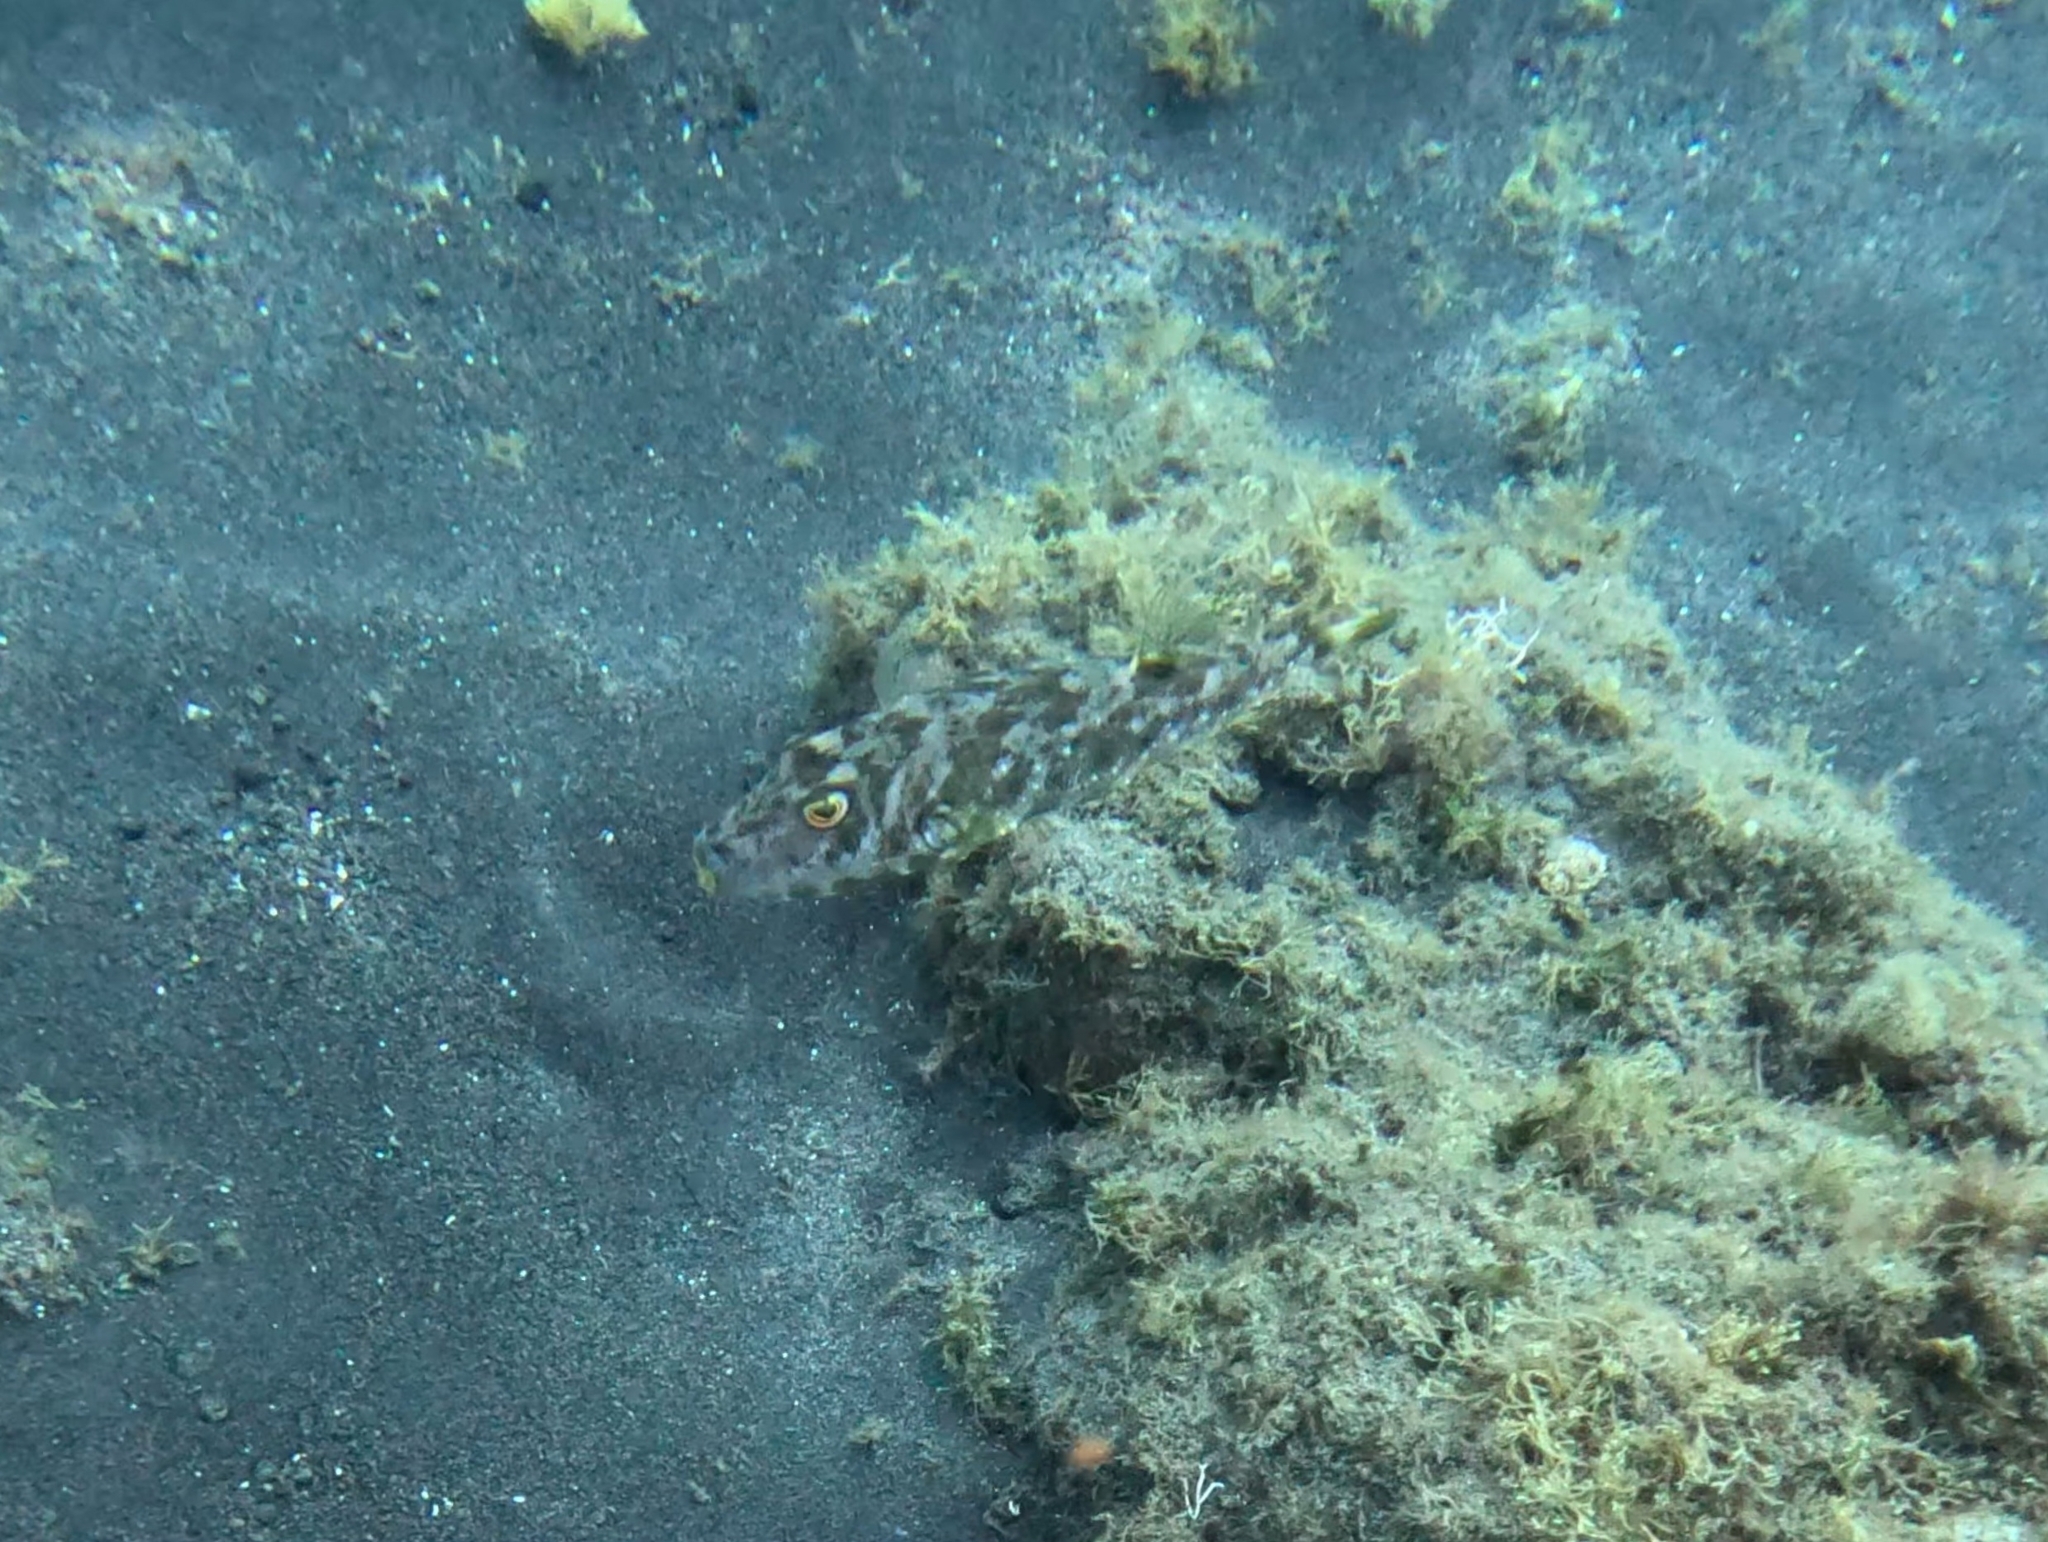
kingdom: Animalia
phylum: Chordata
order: Tetraodontiformes
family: Tetraodontidae
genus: Sphoeroides
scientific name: Sphoeroides marmoratus
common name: Guinean puffer
